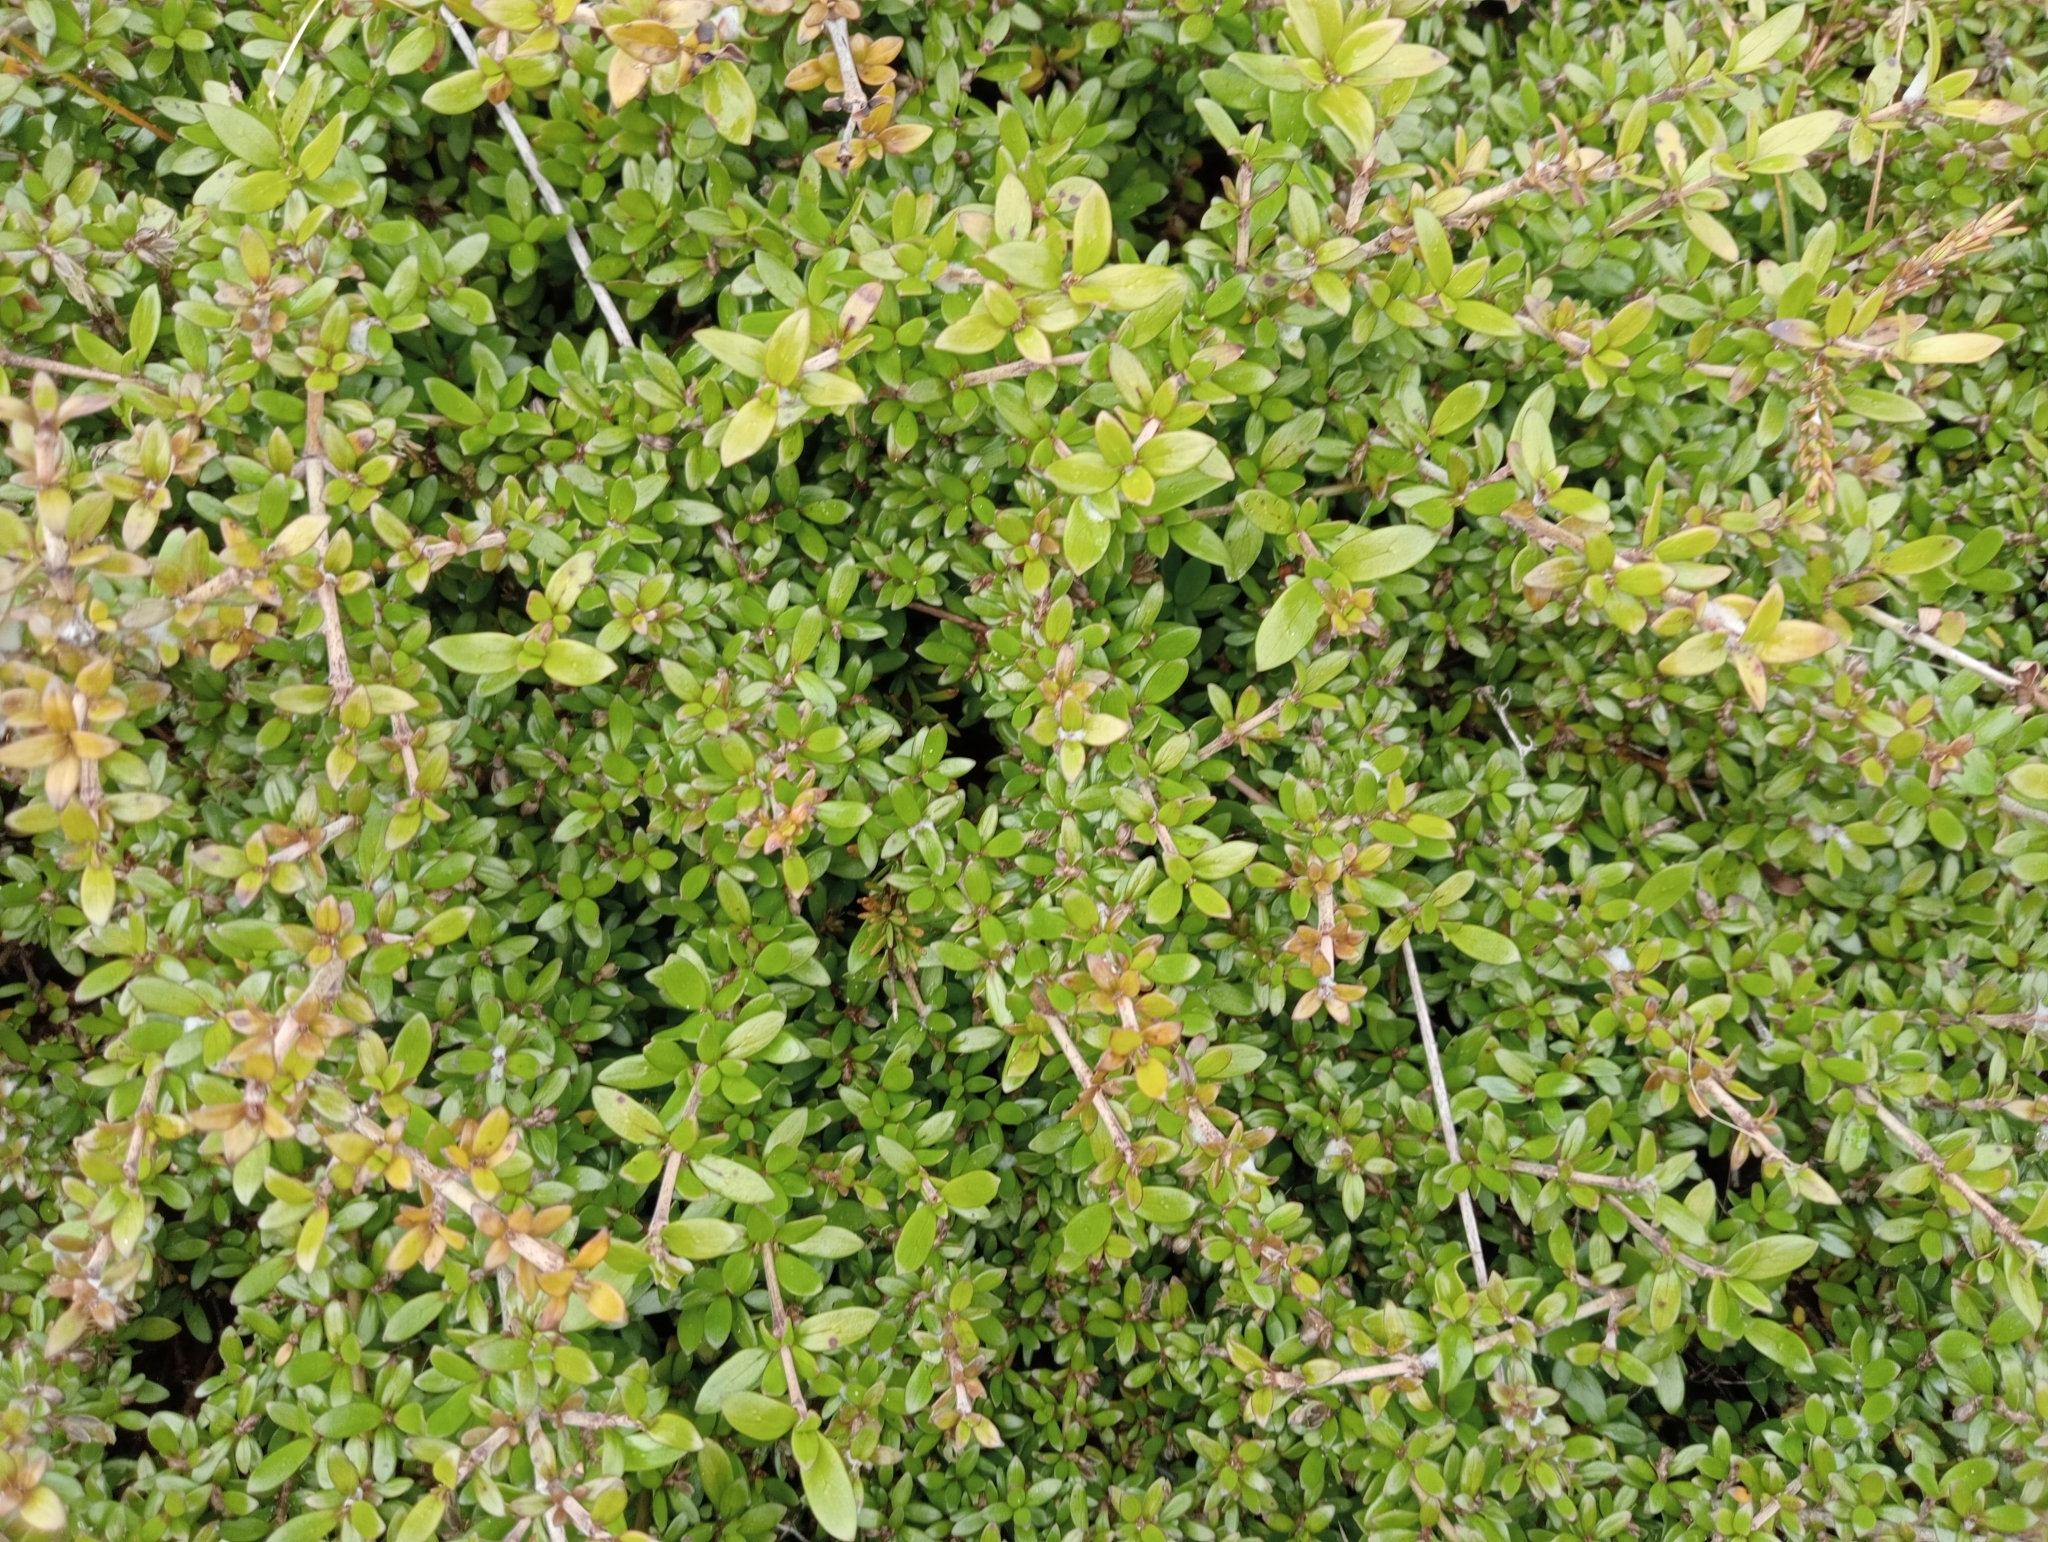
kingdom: Plantae
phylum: Tracheophyta
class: Magnoliopsida
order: Gentianales
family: Rubiaceae
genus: Coprosma
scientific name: Coprosma propinqua
